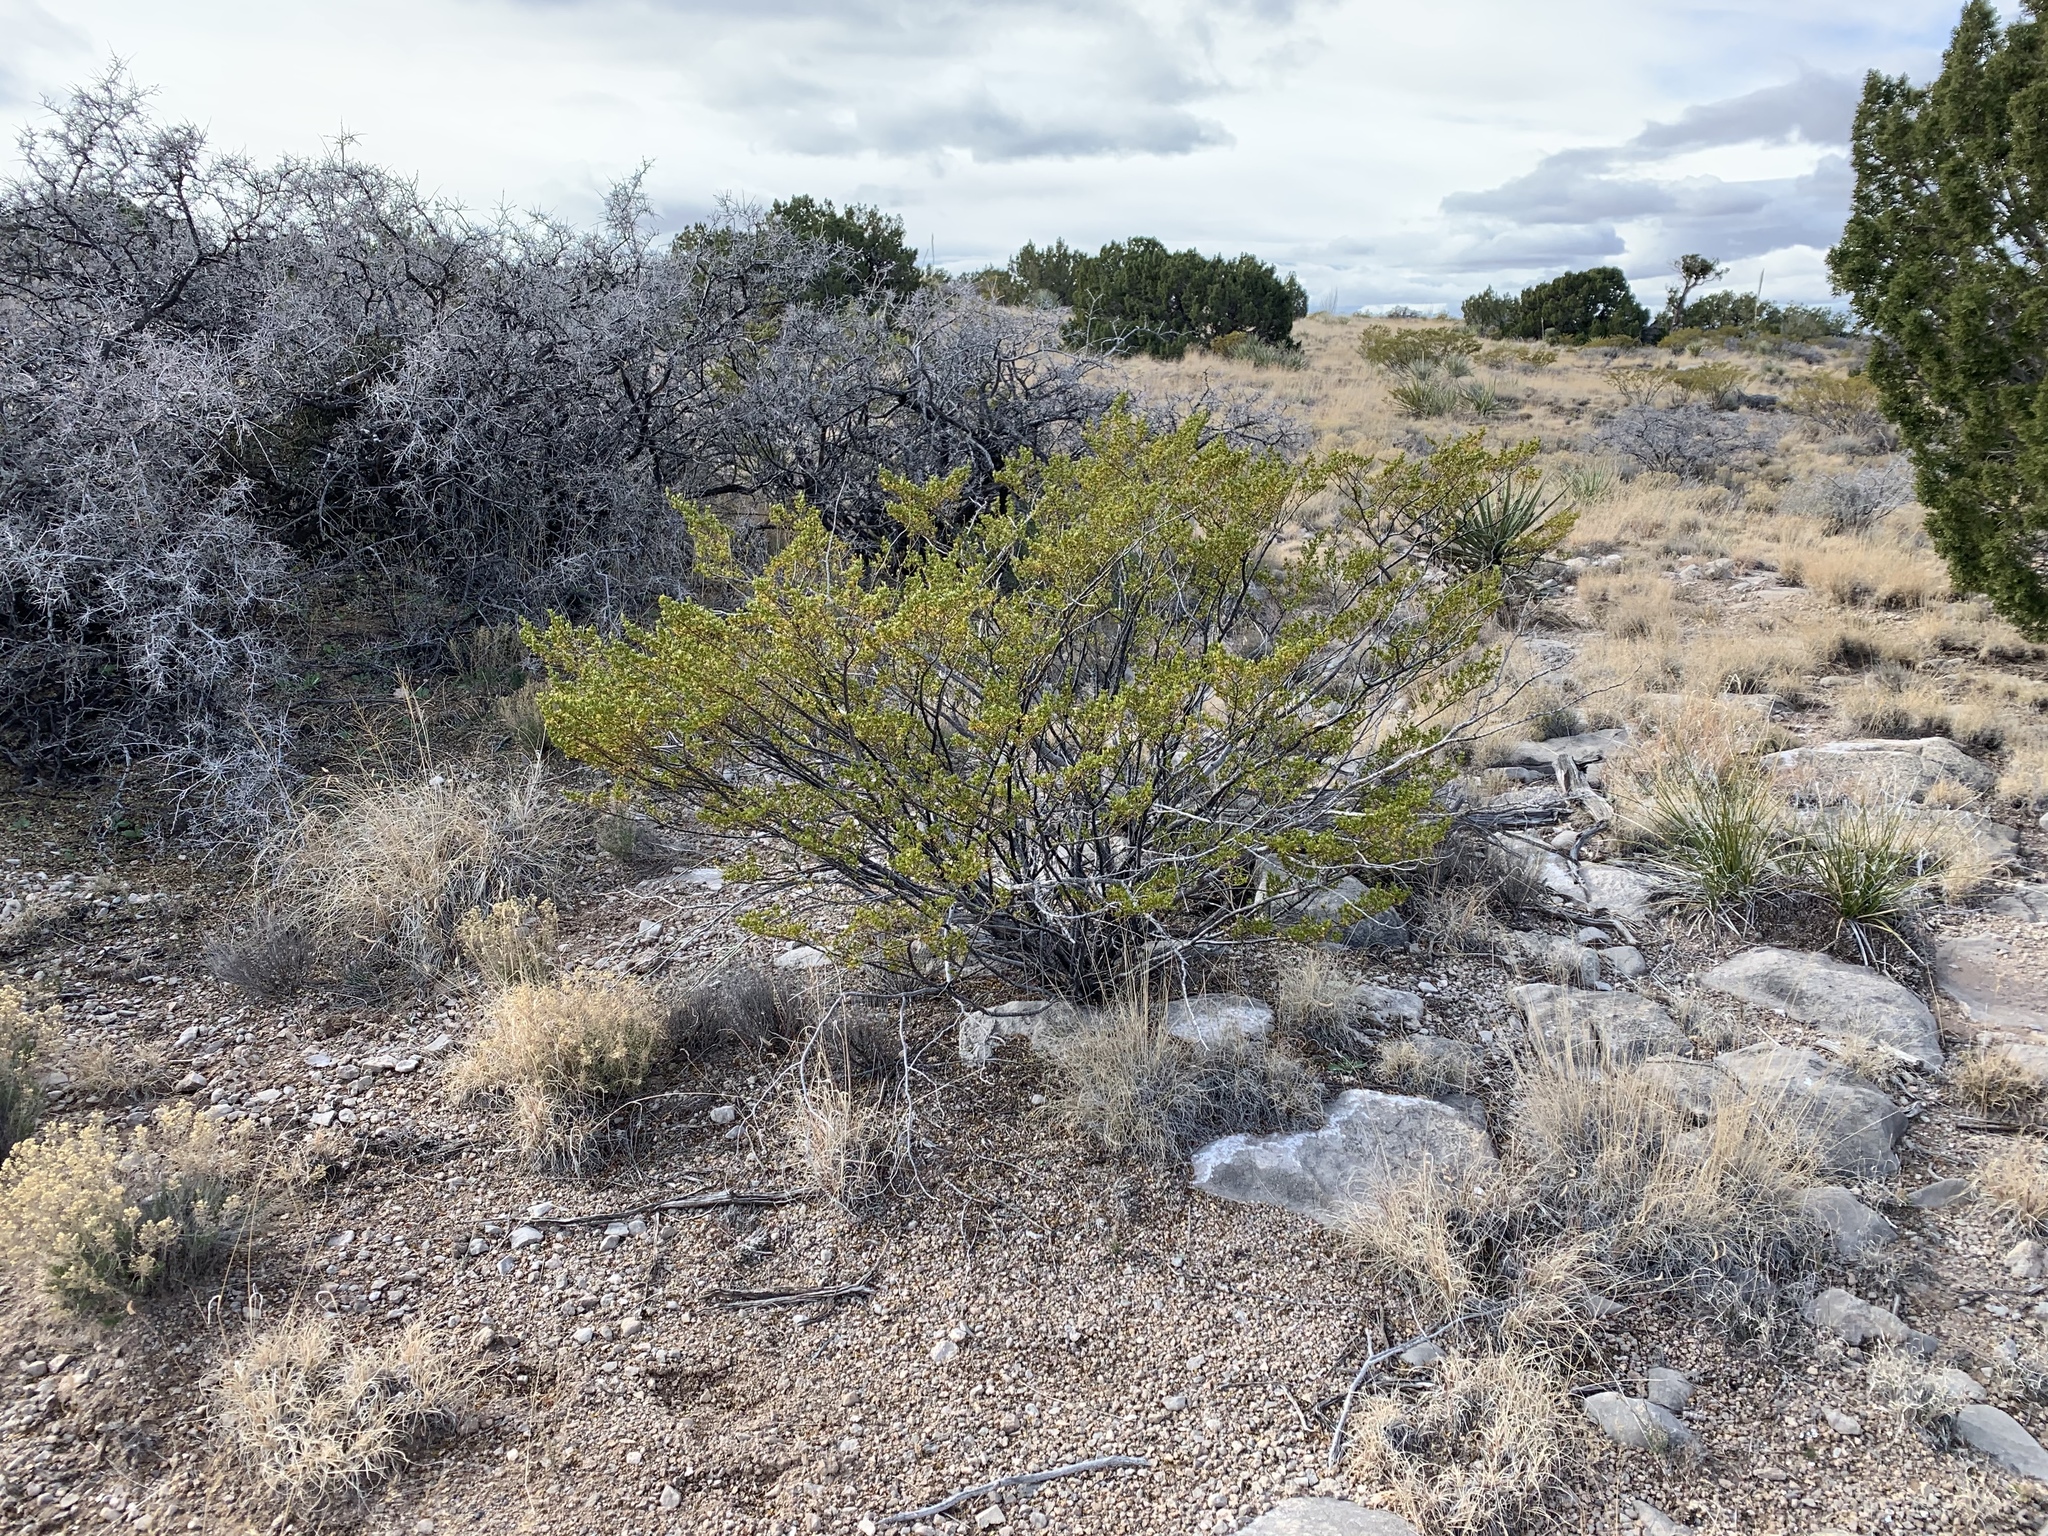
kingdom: Plantae
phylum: Tracheophyta
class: Magnoliopsida
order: Zygophyllales
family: Zygophyllaceae
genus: Larrea
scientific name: Larrea tridentata
